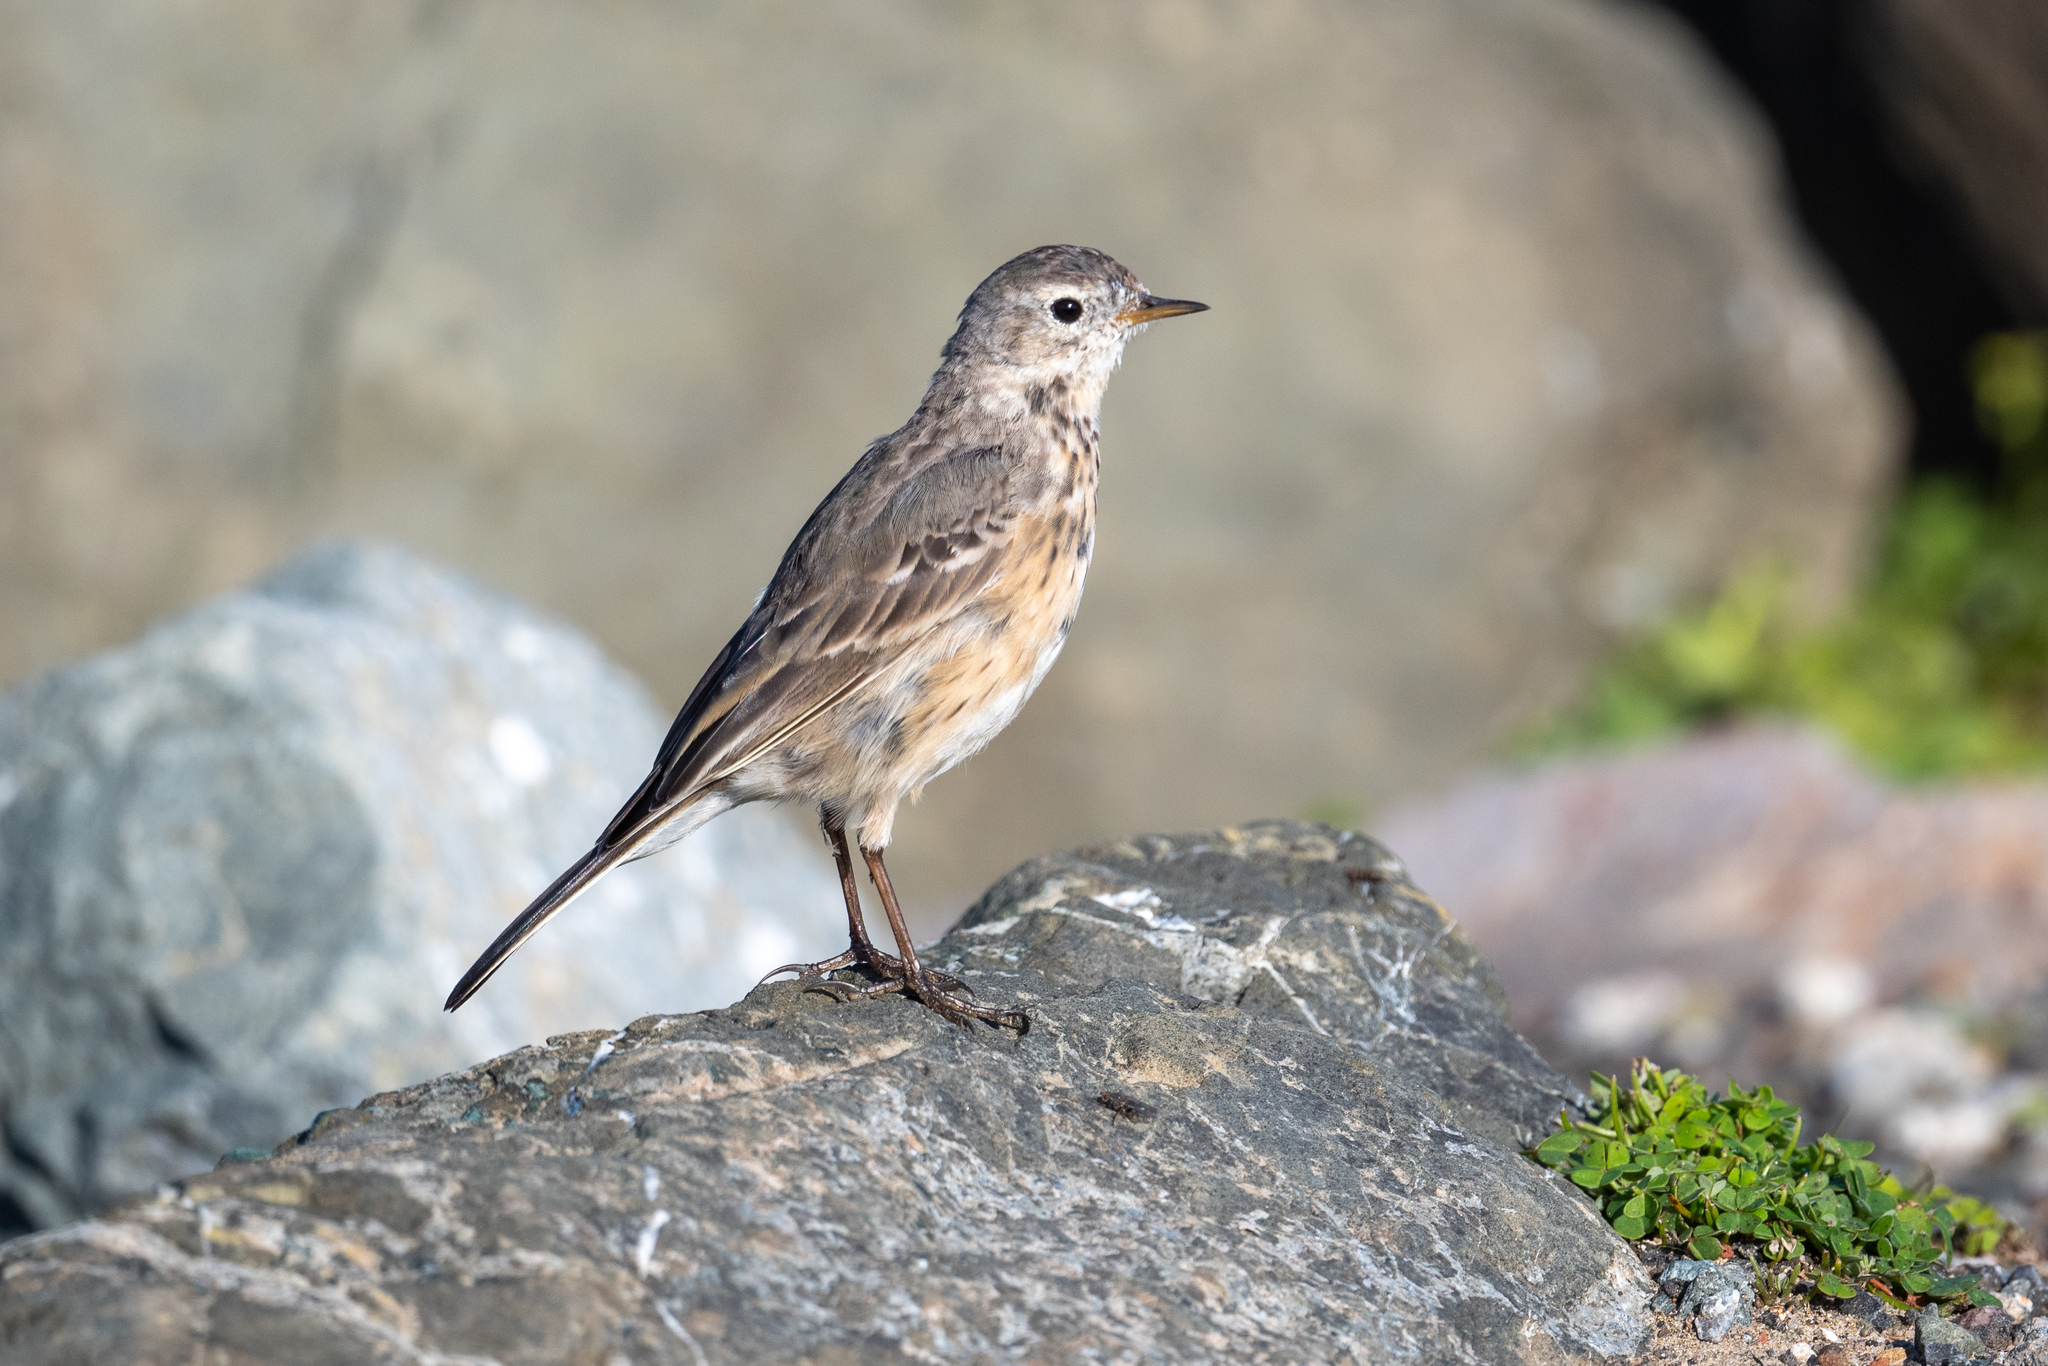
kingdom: Animalia
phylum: Chordata
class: Aves
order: Passeriformes
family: Motacillidae
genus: Anthus
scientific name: Anthus rubescens
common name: Buff-bellied pipit
